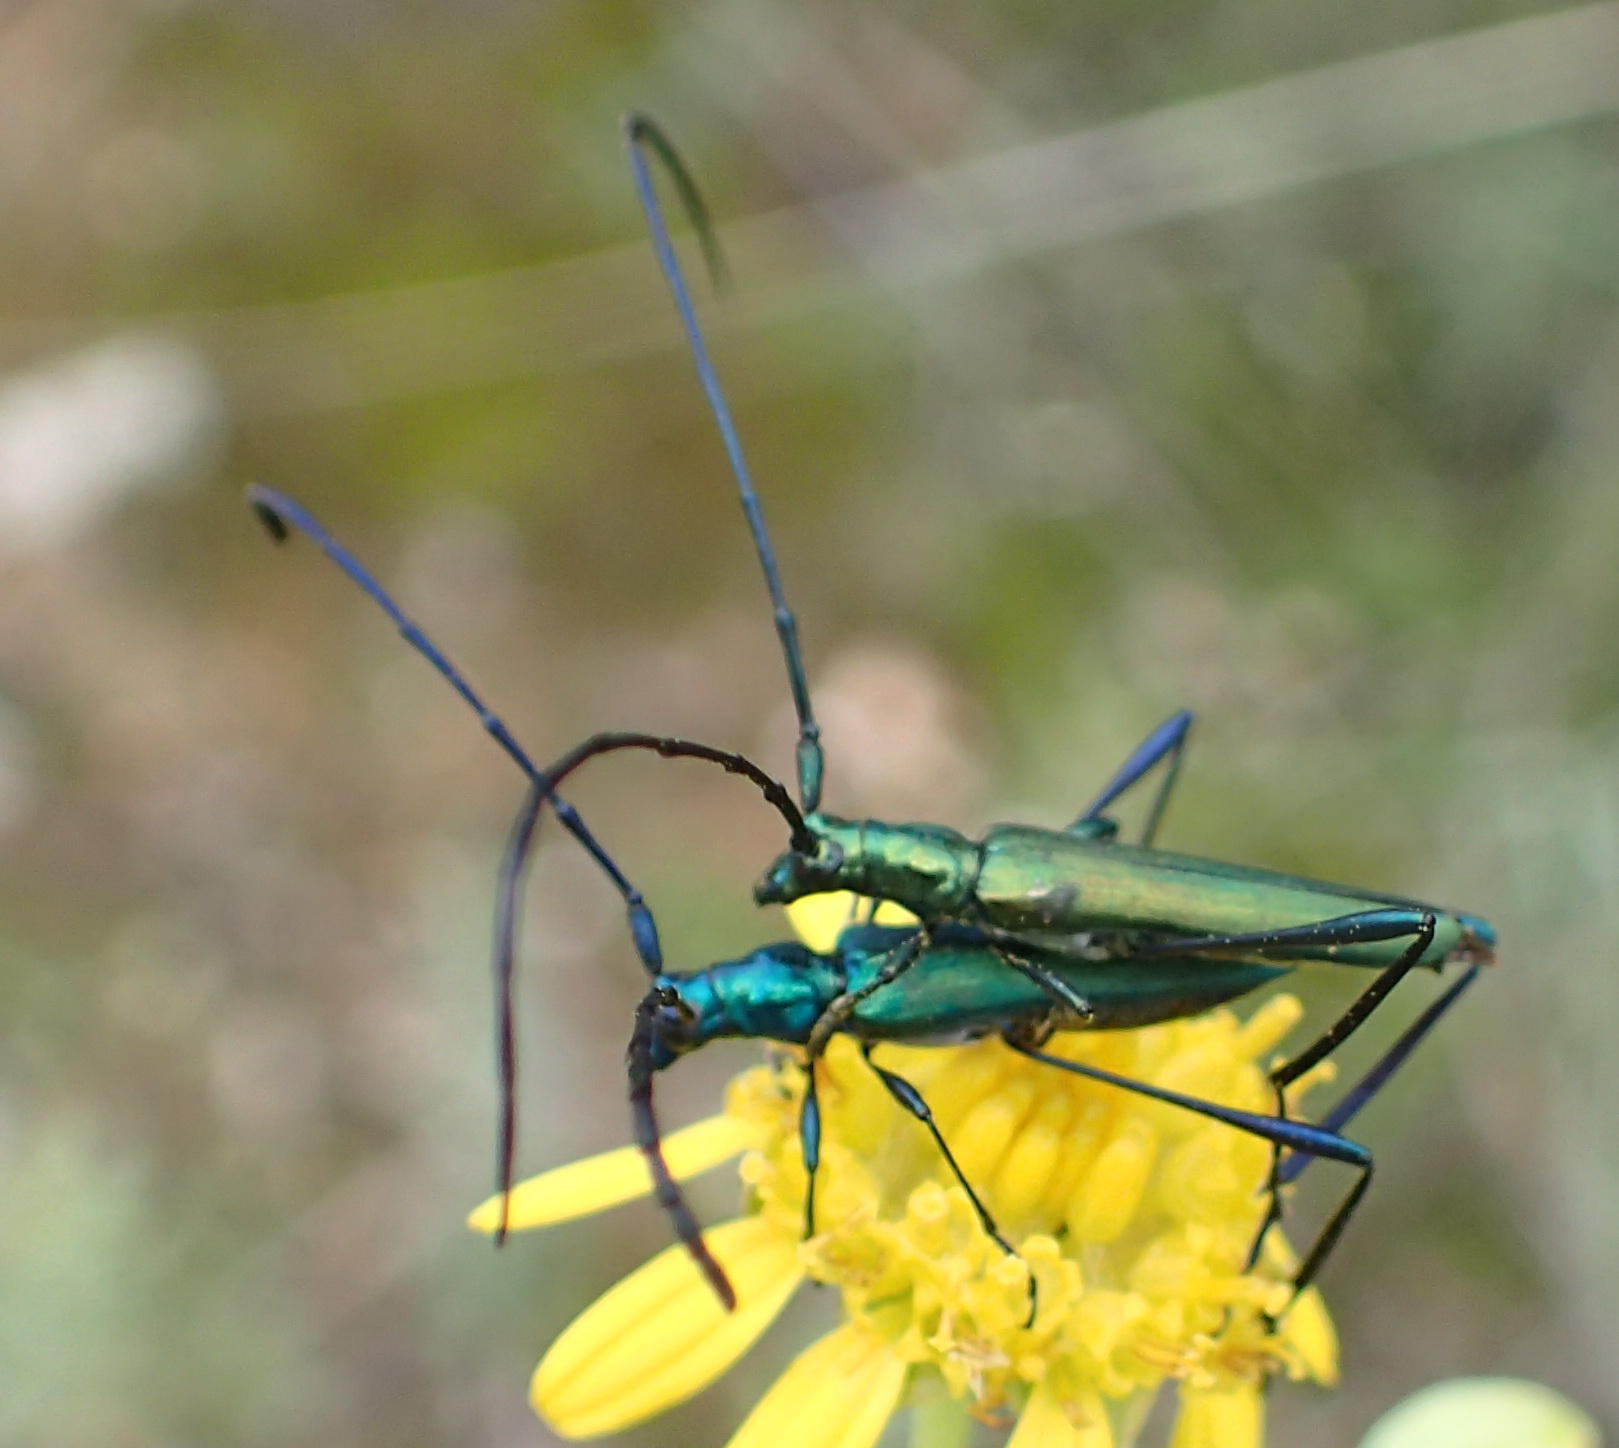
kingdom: Animalia
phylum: Arthropoda
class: Insecta
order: Coleoptera
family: Cerambycidae
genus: Promeces
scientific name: Promeces longipes
